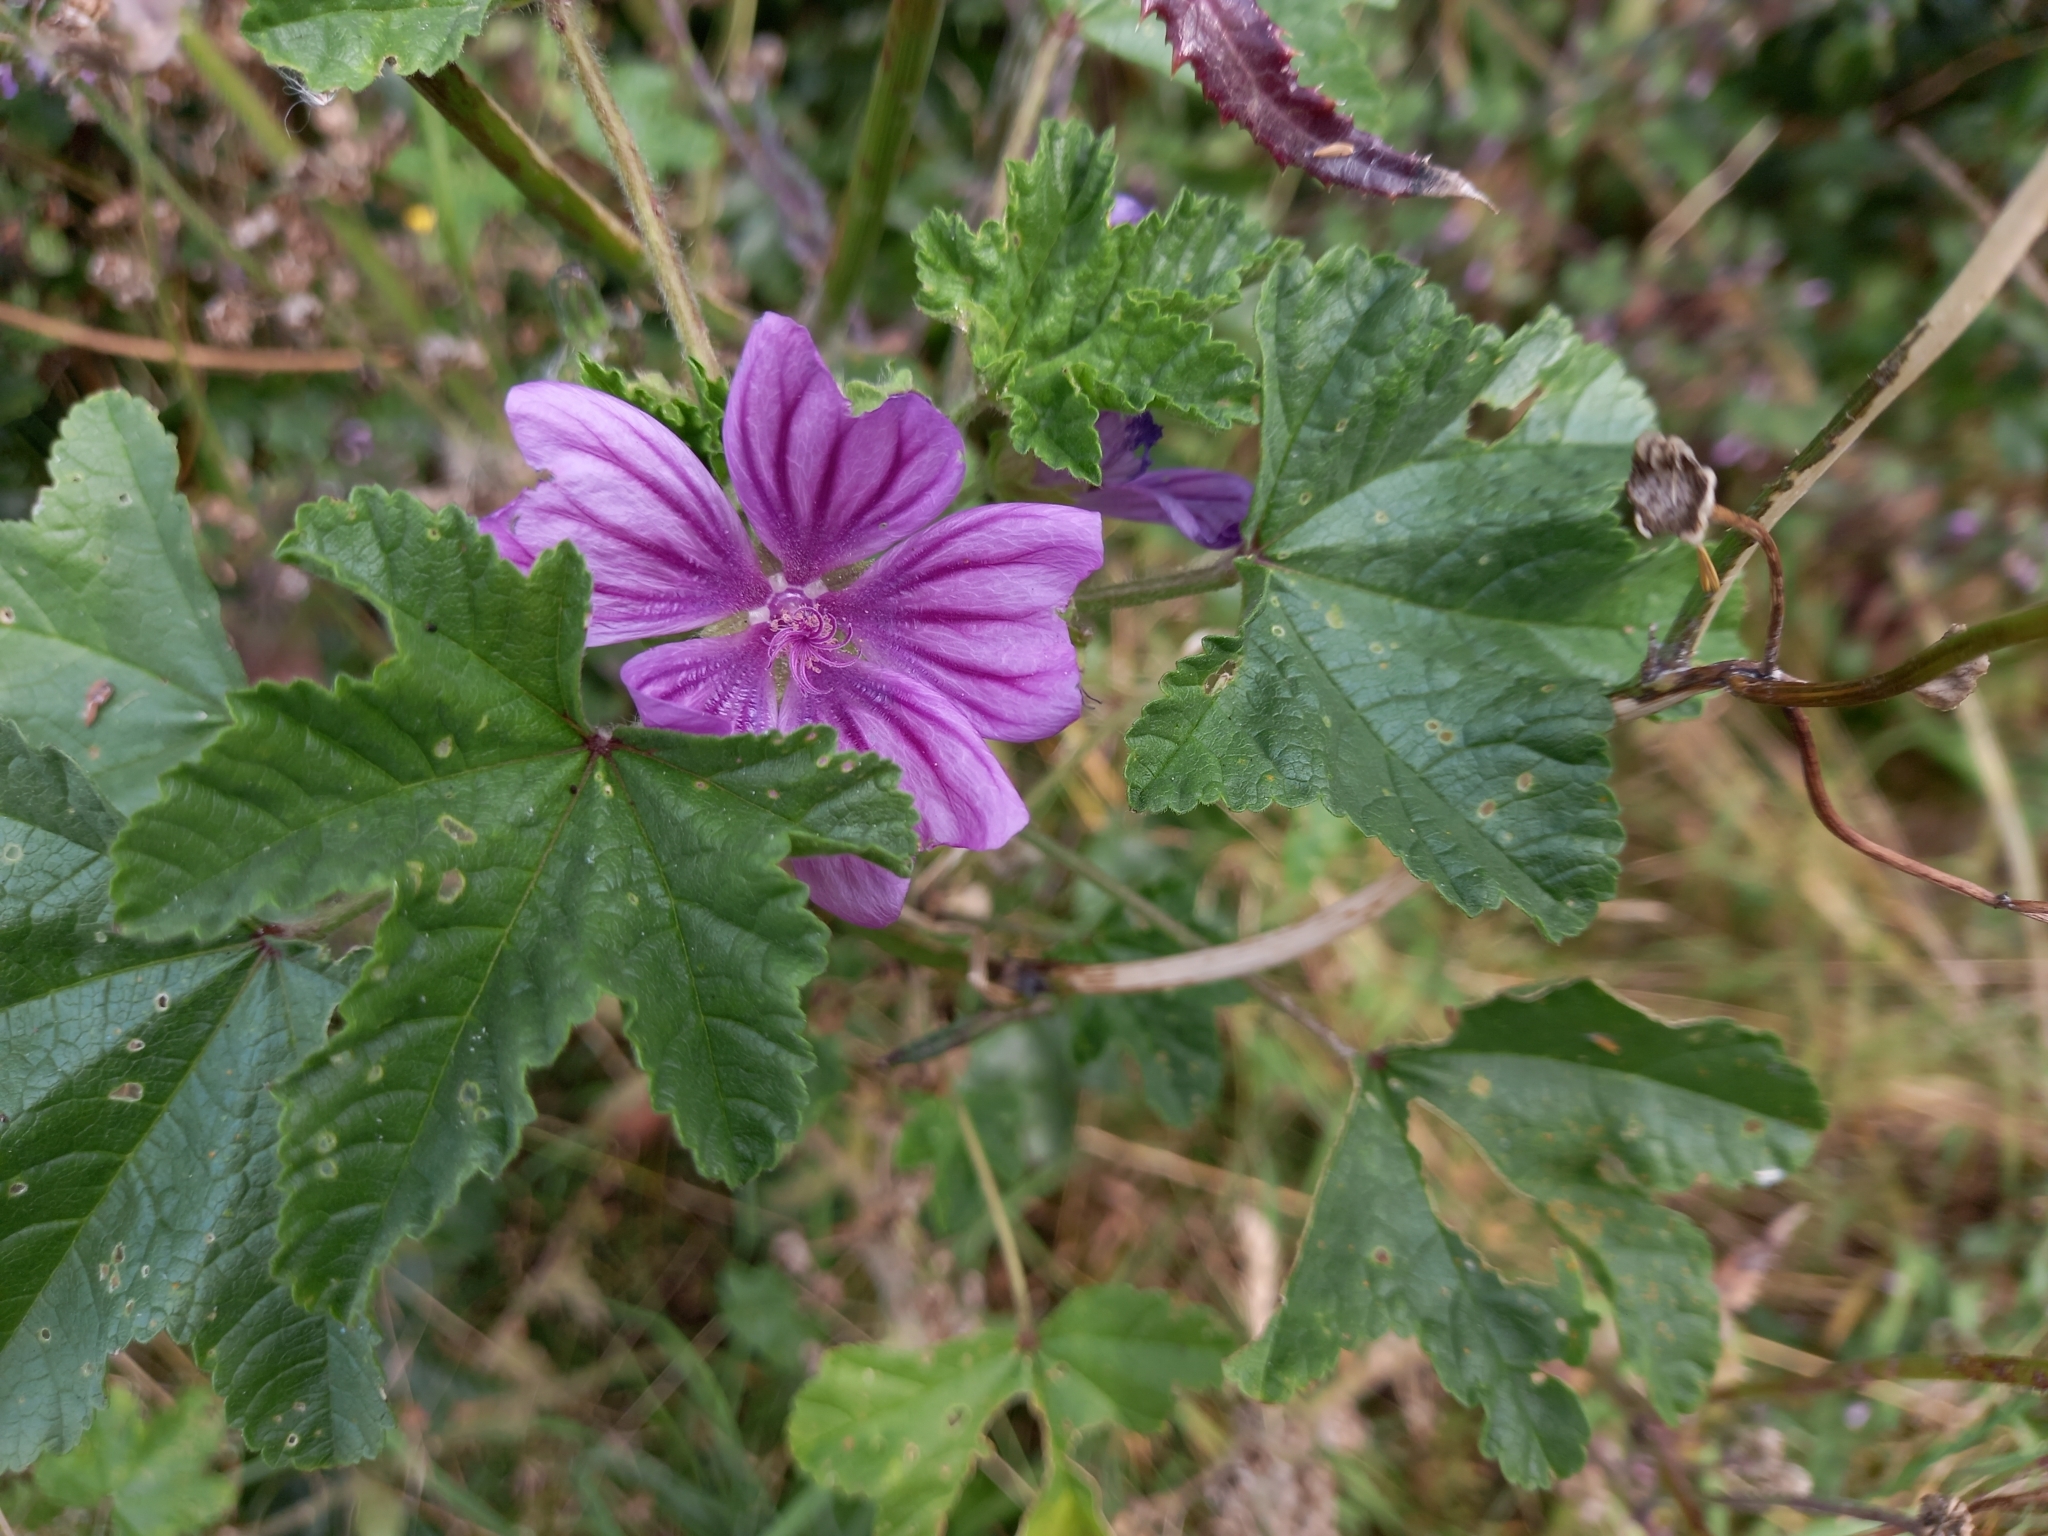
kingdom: Plantae
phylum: Tracheophyta
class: Magnoliopsida
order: Malvales
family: Malvaceae
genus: Malva
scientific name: Malva sylvestris
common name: Common mallow
